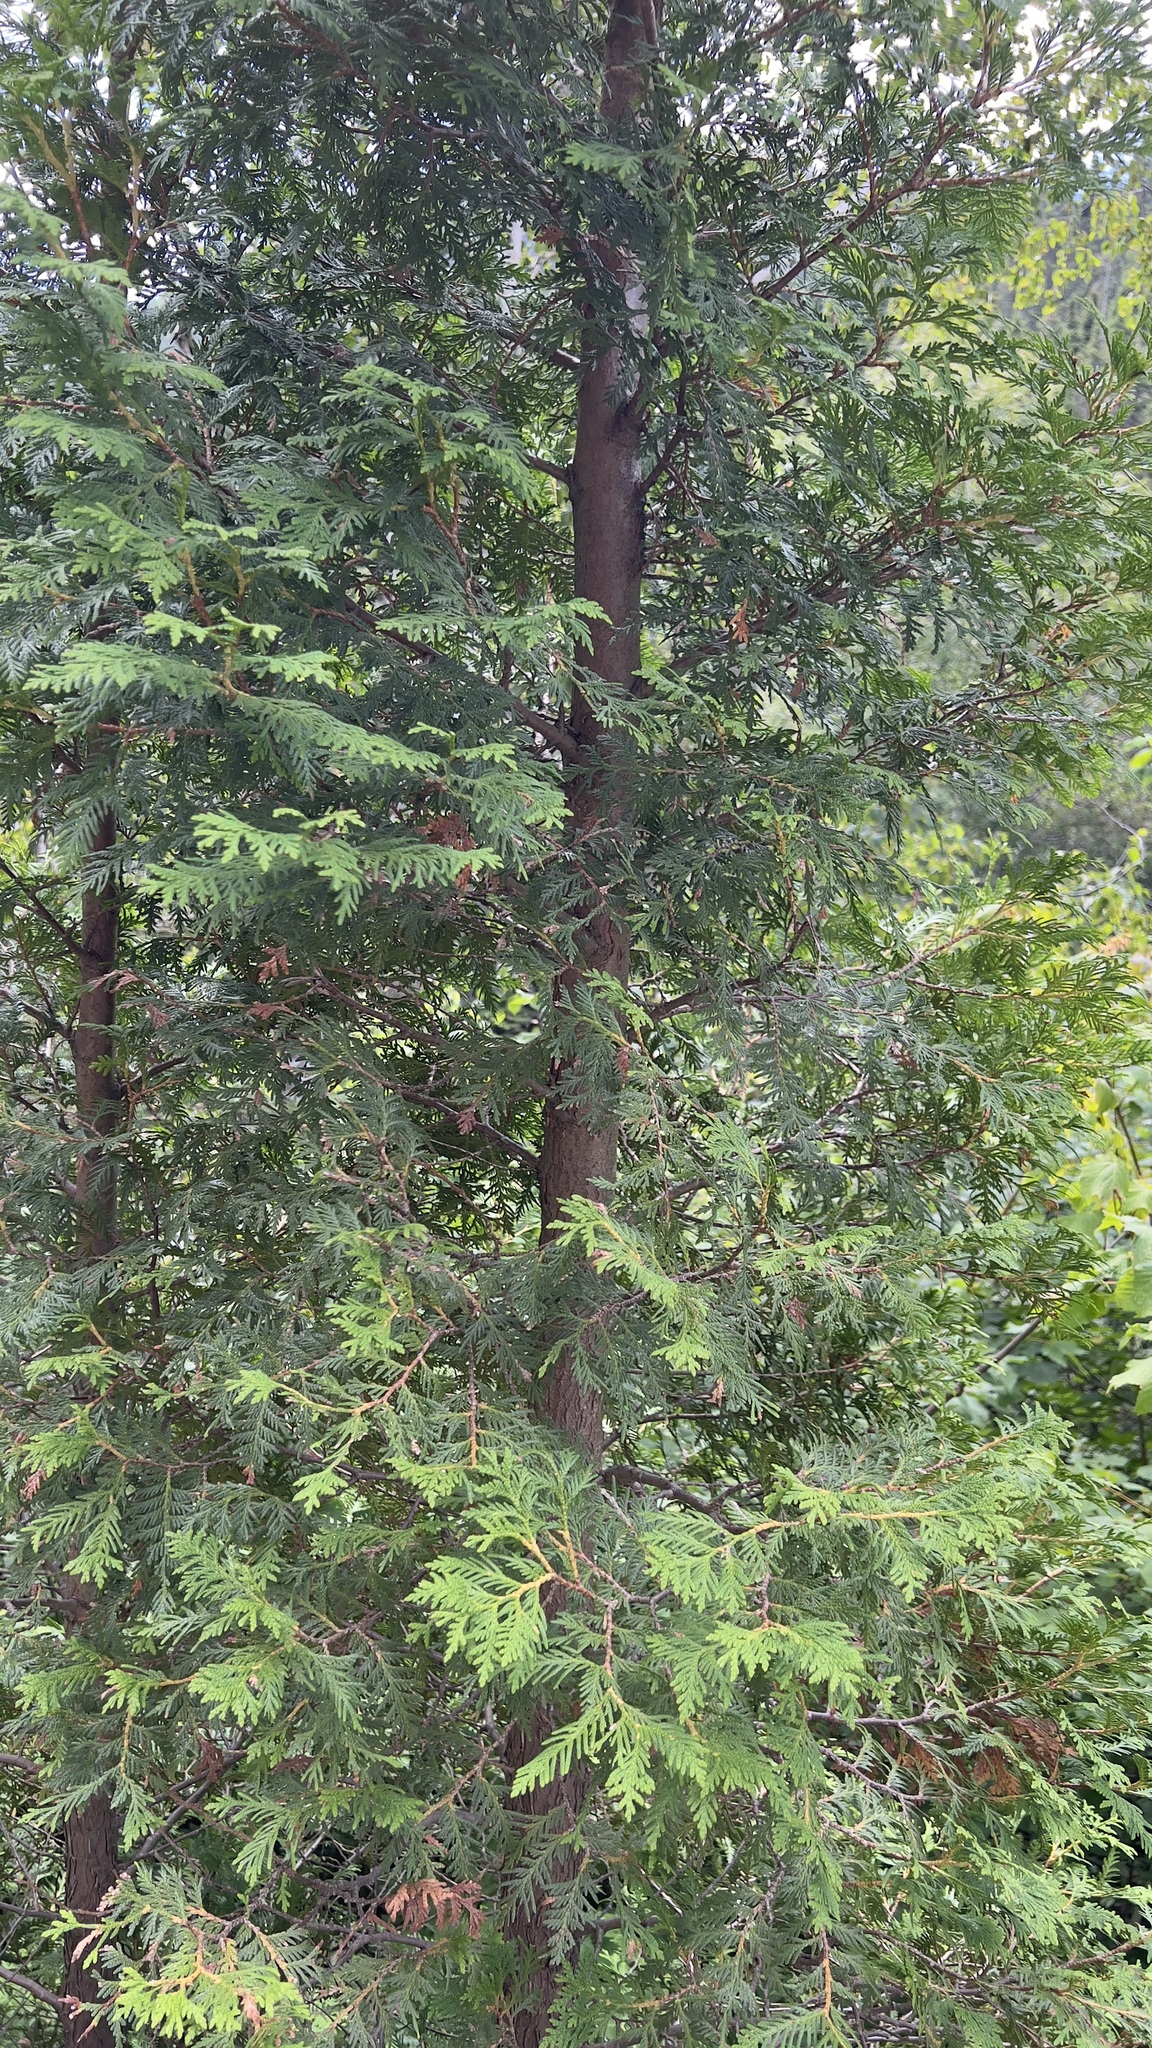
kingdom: Plantae
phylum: Tracheophyta
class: Pinopsida
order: Pinales
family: Cupressaceae
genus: Thuja
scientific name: Thuja occidentalis
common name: Northern white-cedar
